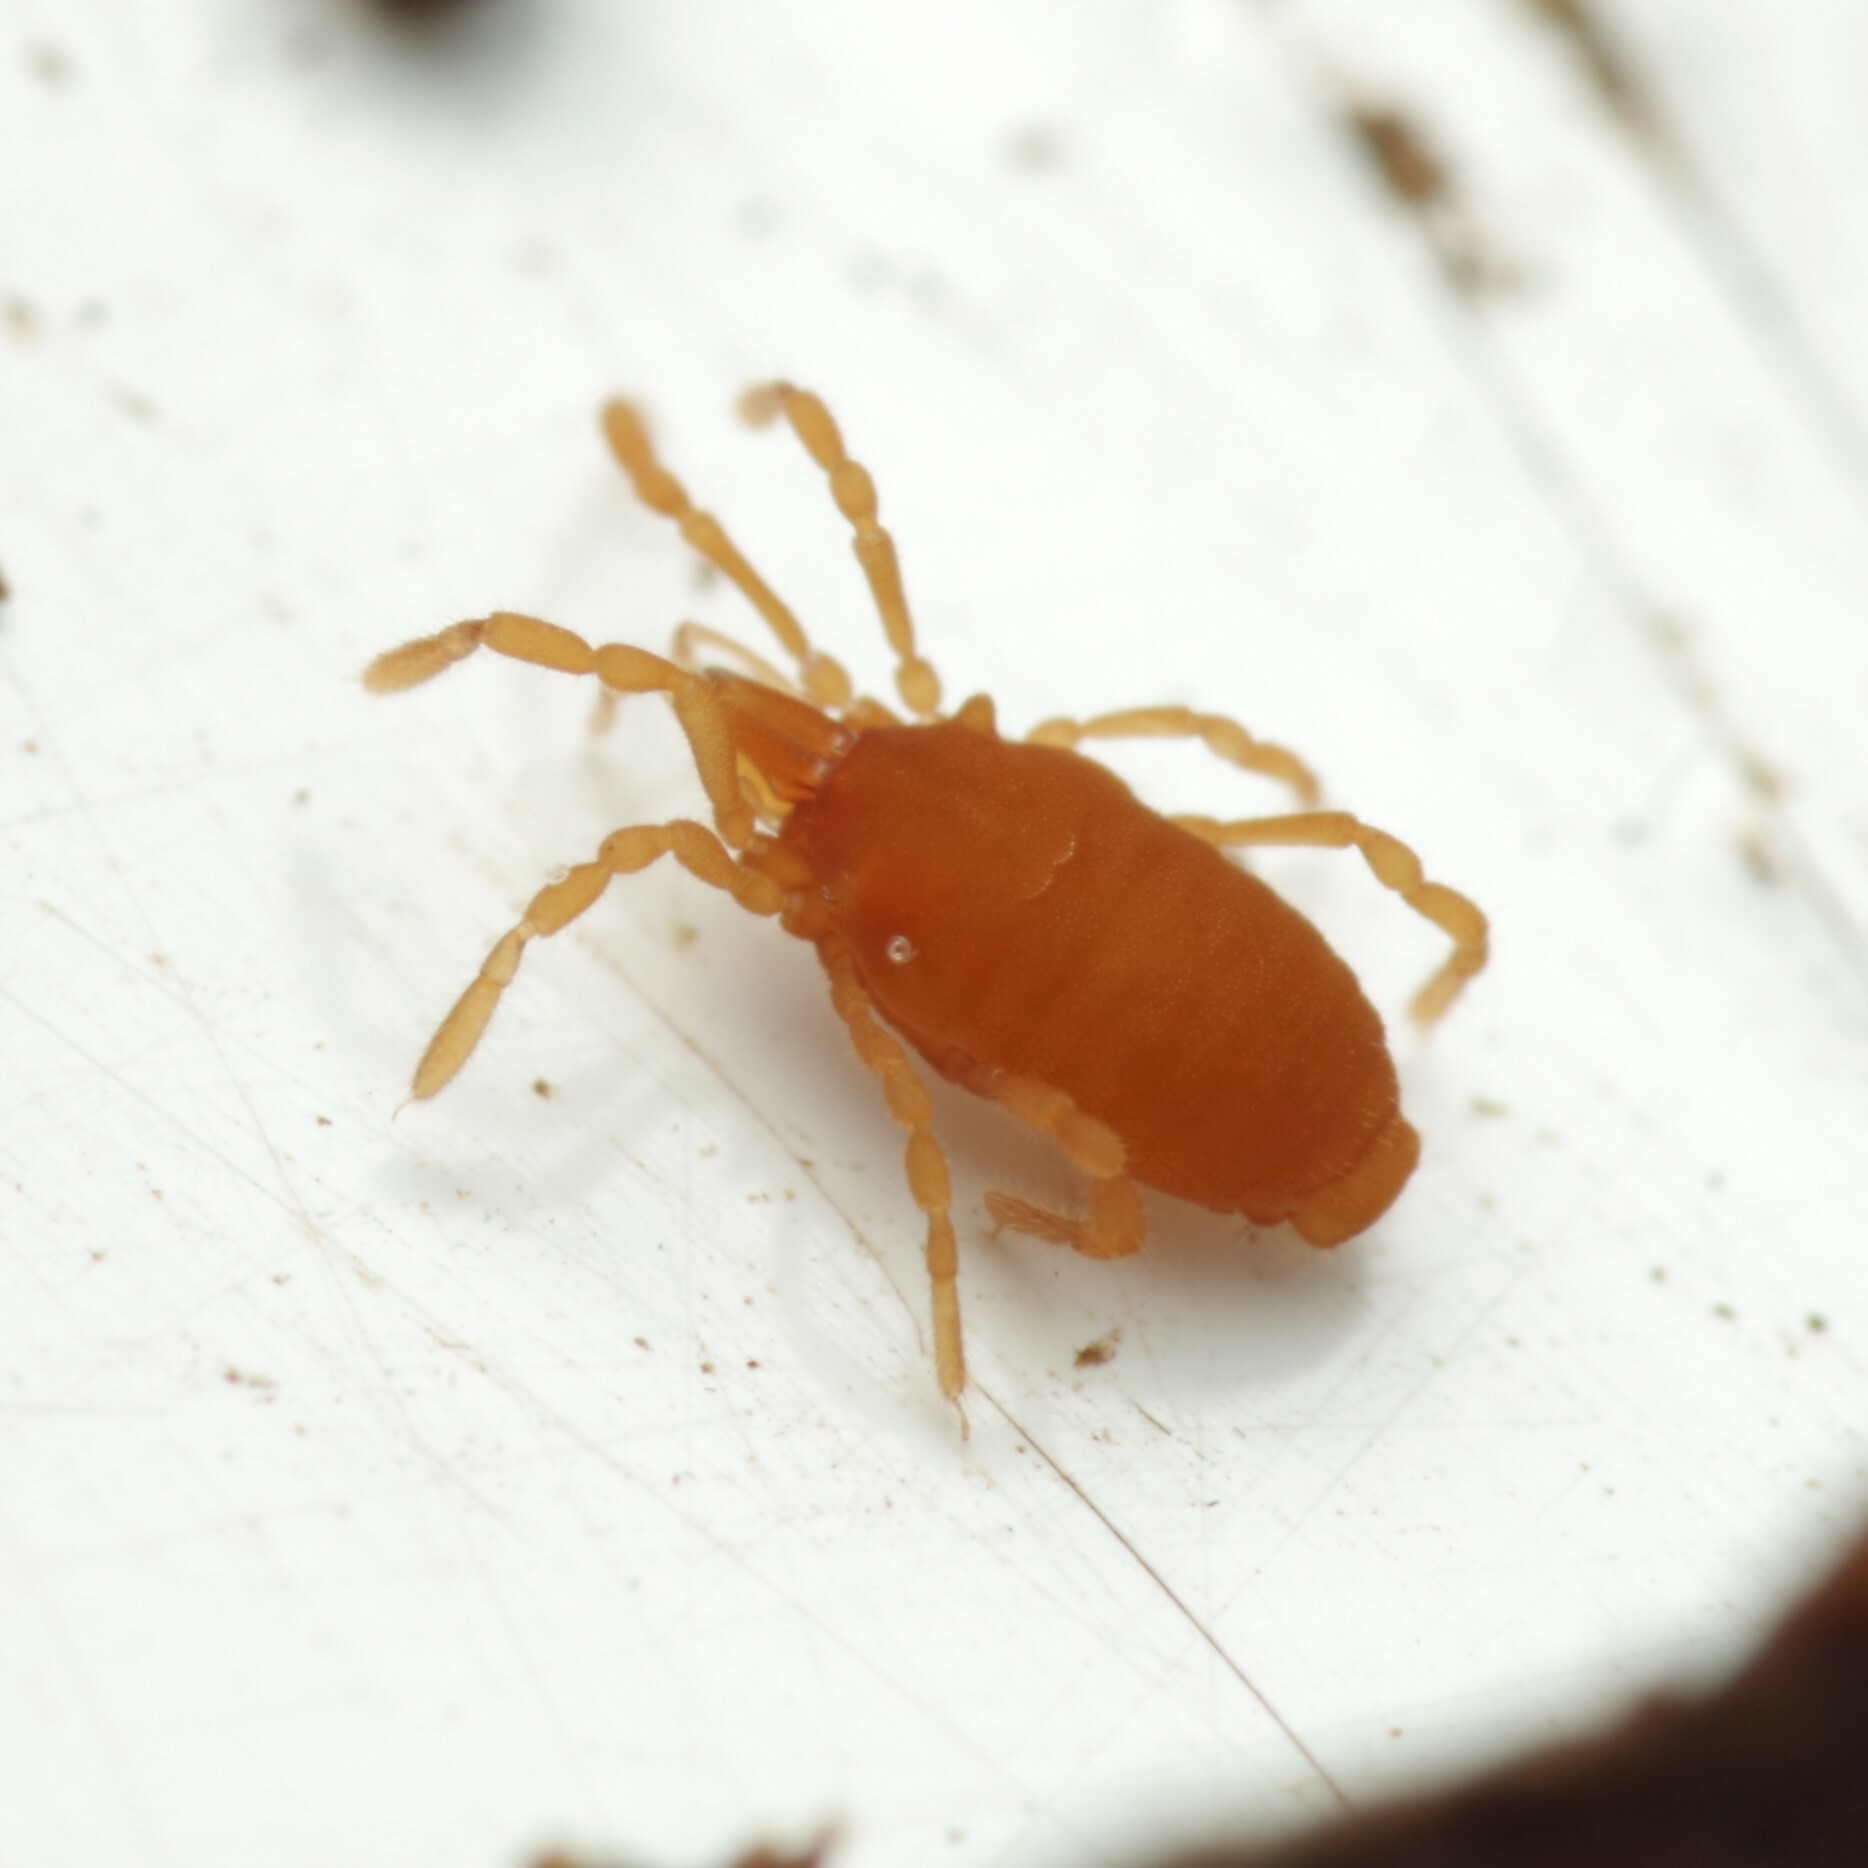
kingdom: Animalia
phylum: Arthropoda
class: Arachnida
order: Opiliones
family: Sironidae
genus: Siro
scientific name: Siro rubens
